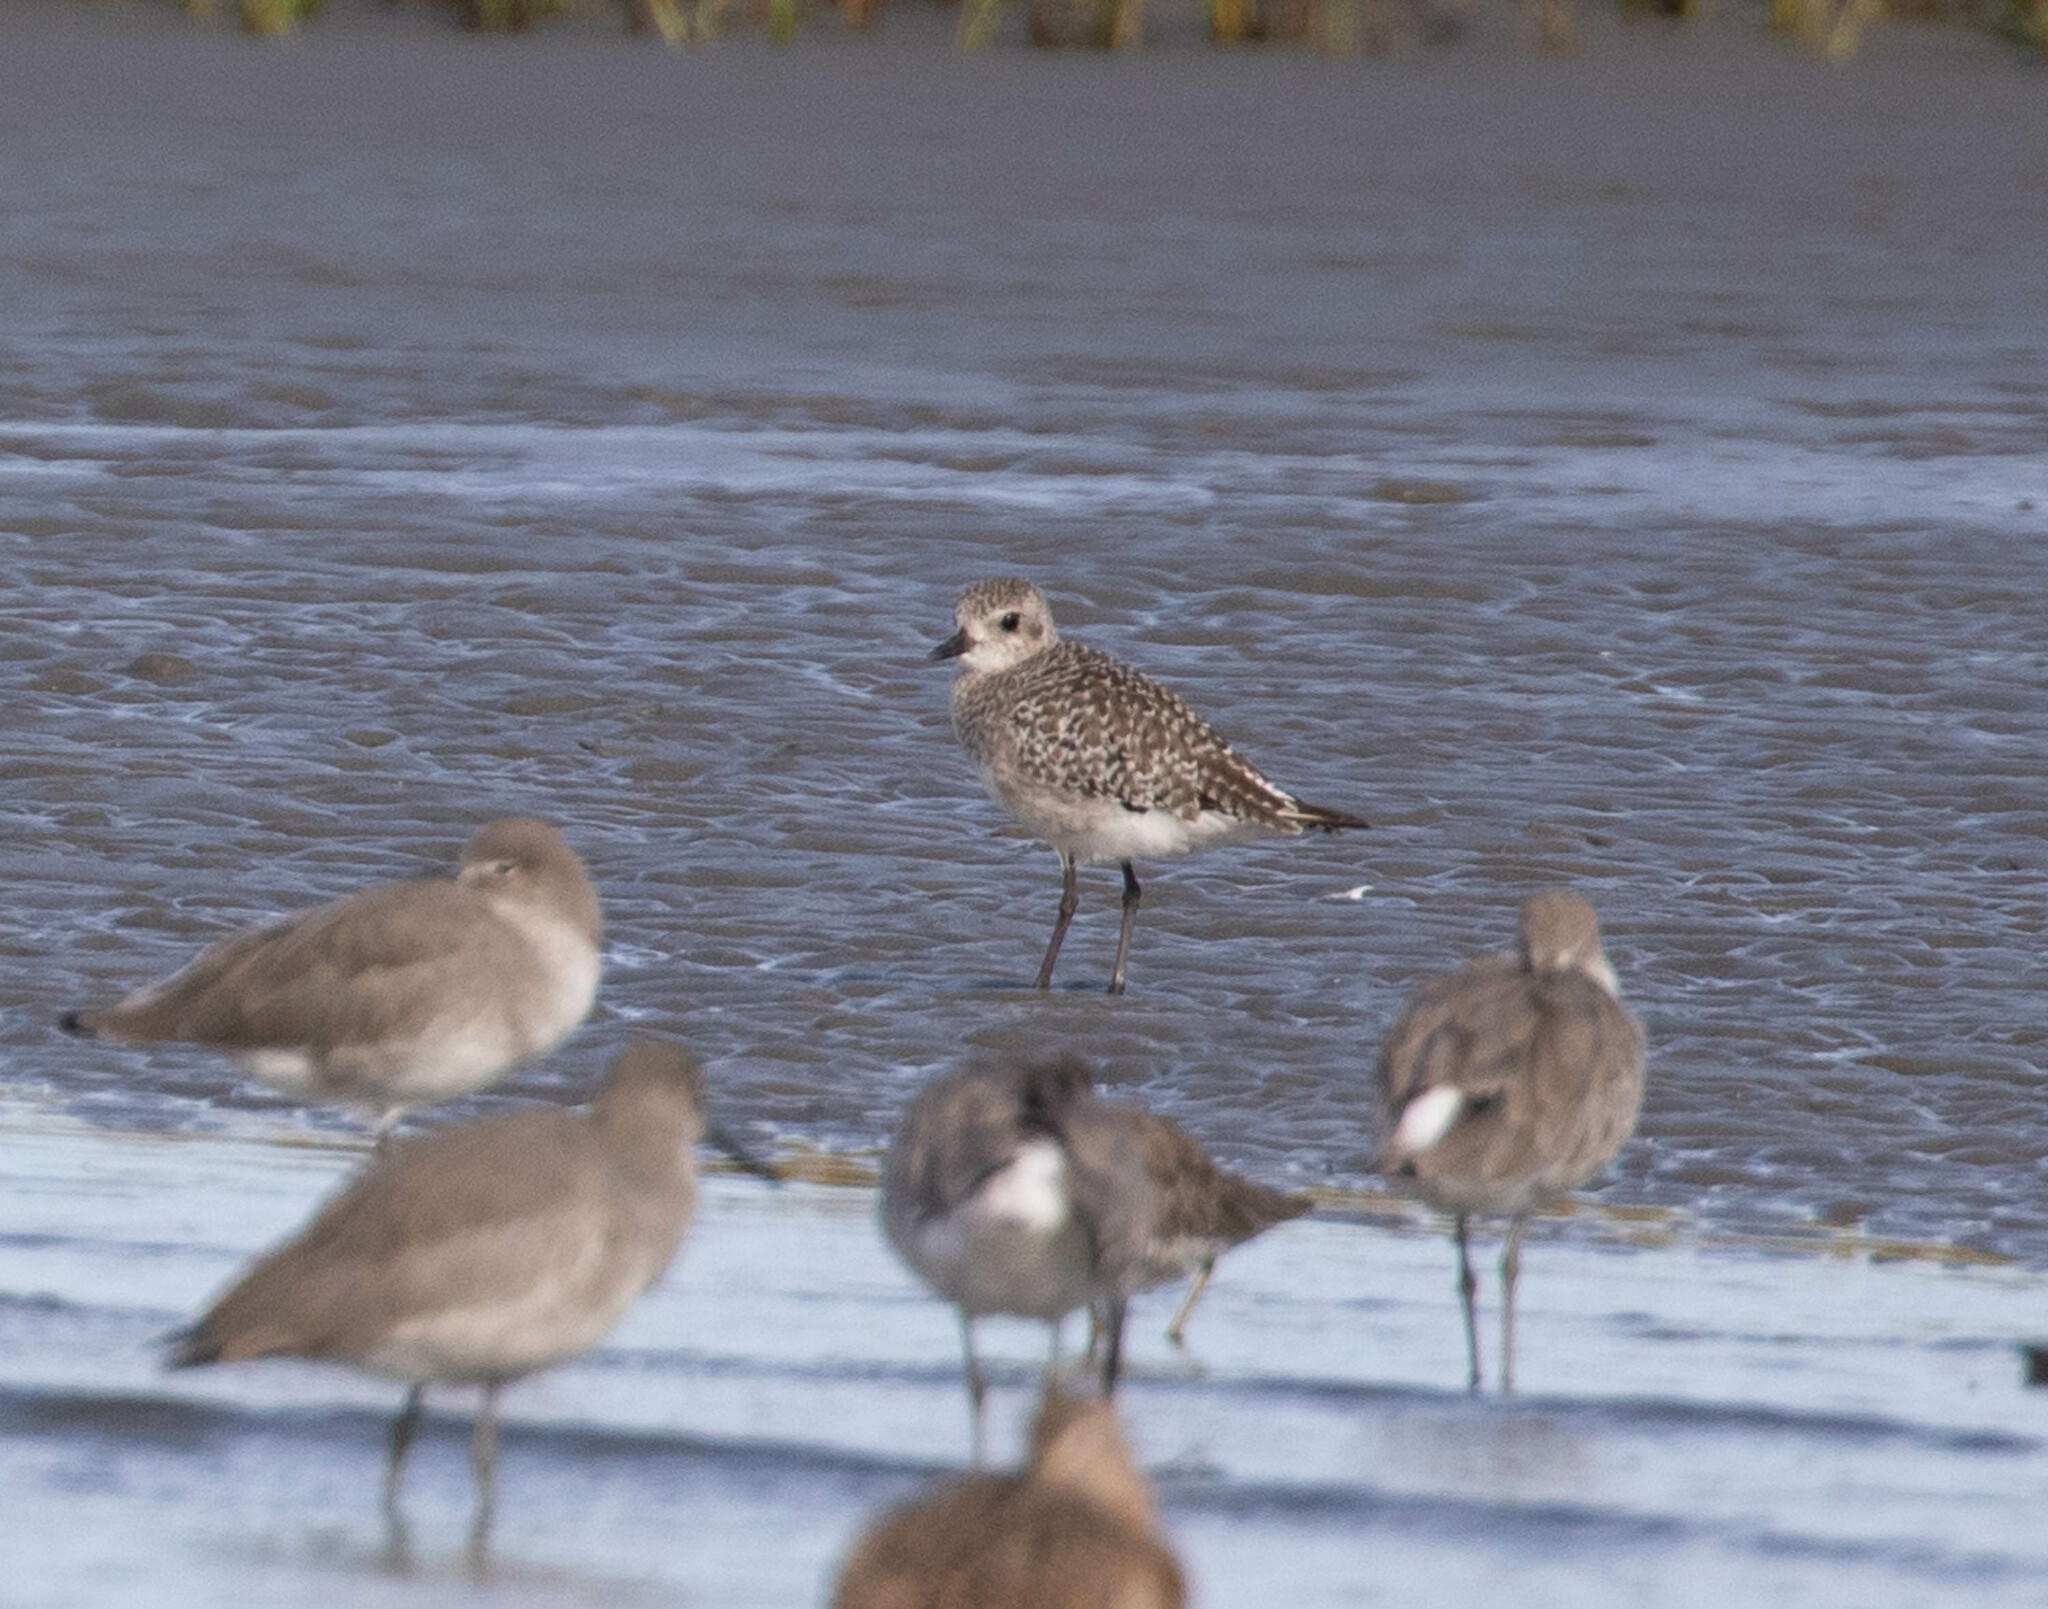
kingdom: Animalia
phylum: Chordata
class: Aves
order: Charadriiformes
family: Charadriidae
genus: Pluvialis
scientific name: Pluvialis squatarola
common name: Grey plover
